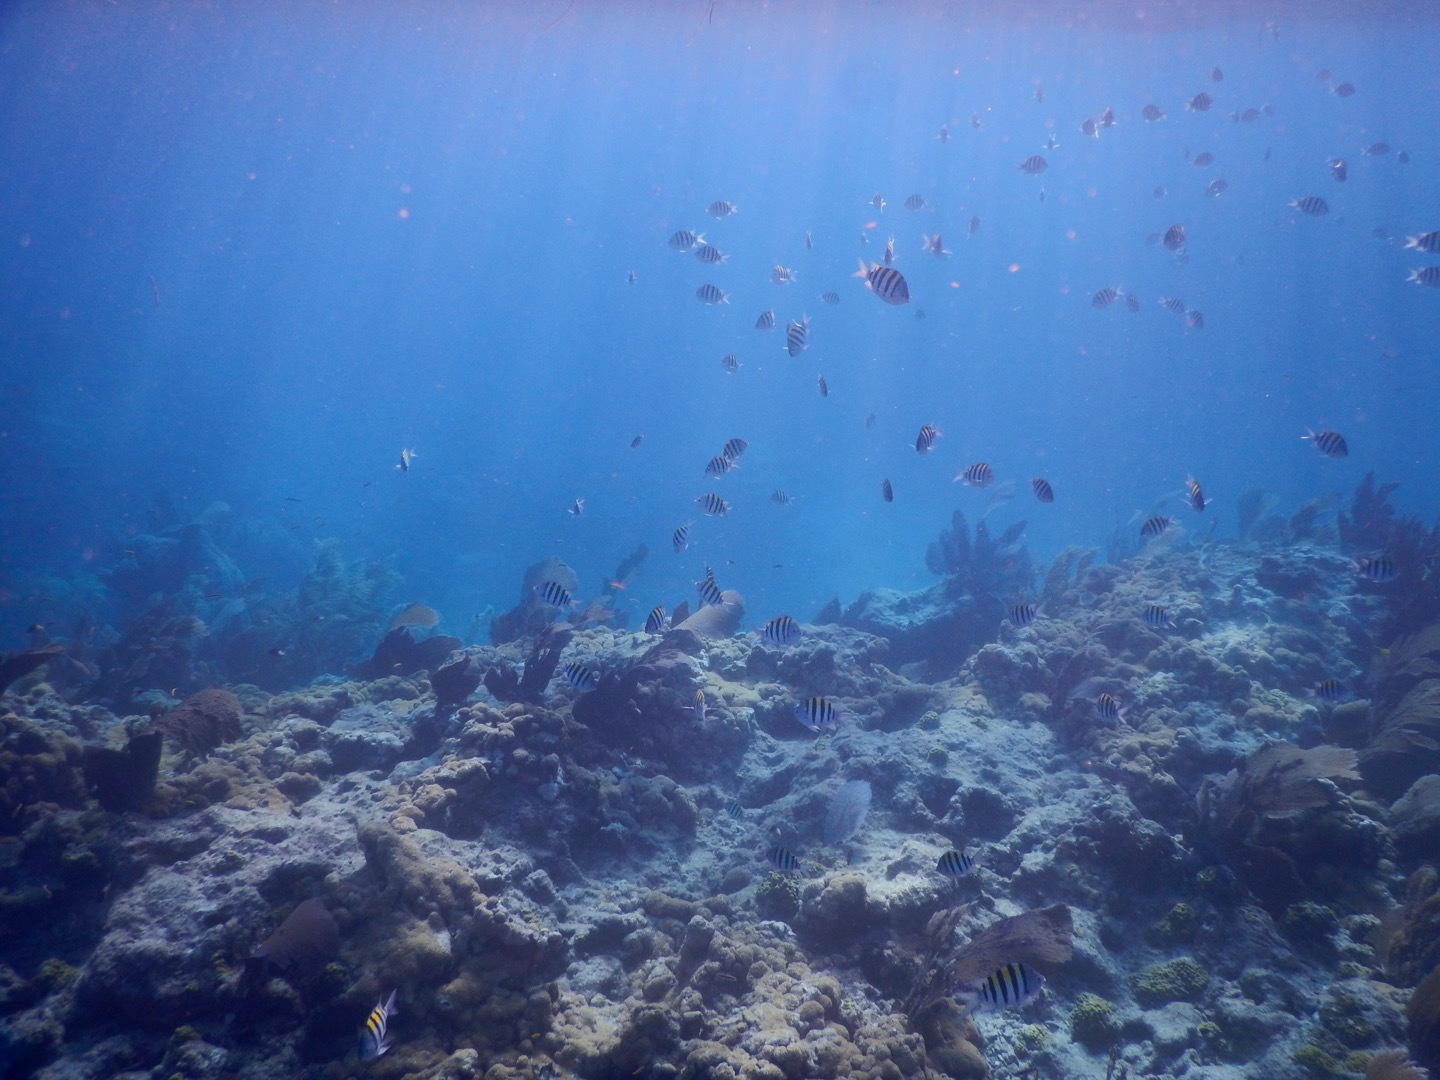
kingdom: Animalia
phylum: Chordata
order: Perciformes
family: Pomacentridae
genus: Abudefduf
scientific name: Abudefduf saxatilis
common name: Sergeant major
